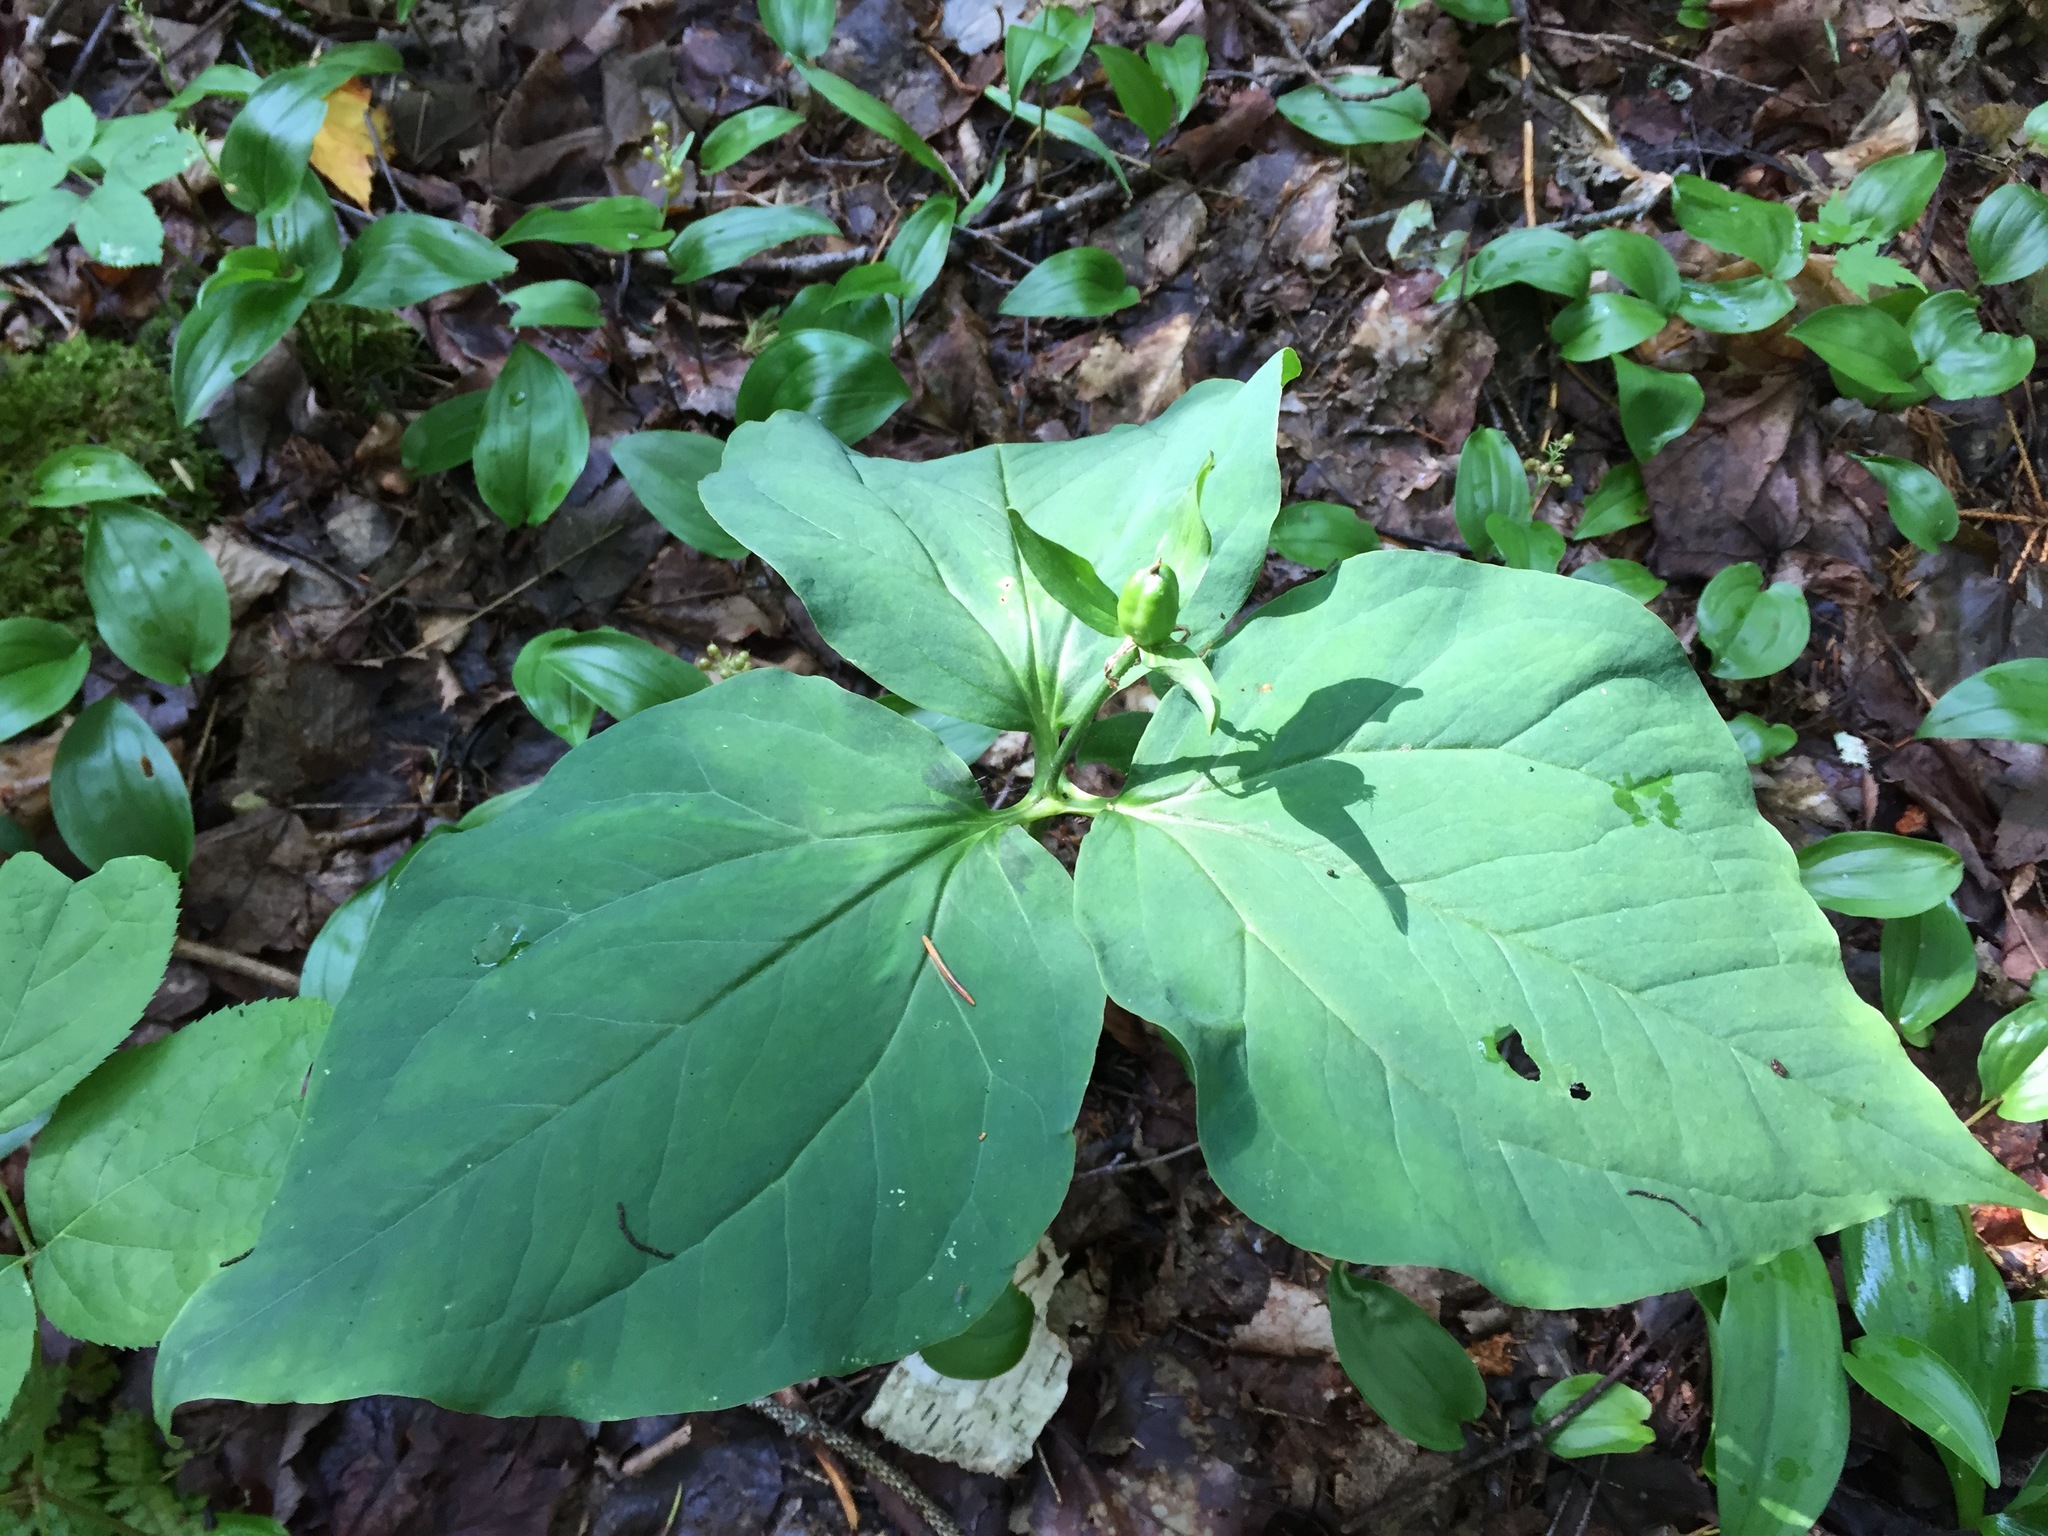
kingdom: Plantae
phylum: Tracheophyta
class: Liliopsida
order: Liliales
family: Melanthiaceae
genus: Trillium
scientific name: Trillium undulatum
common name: Paint trillium
